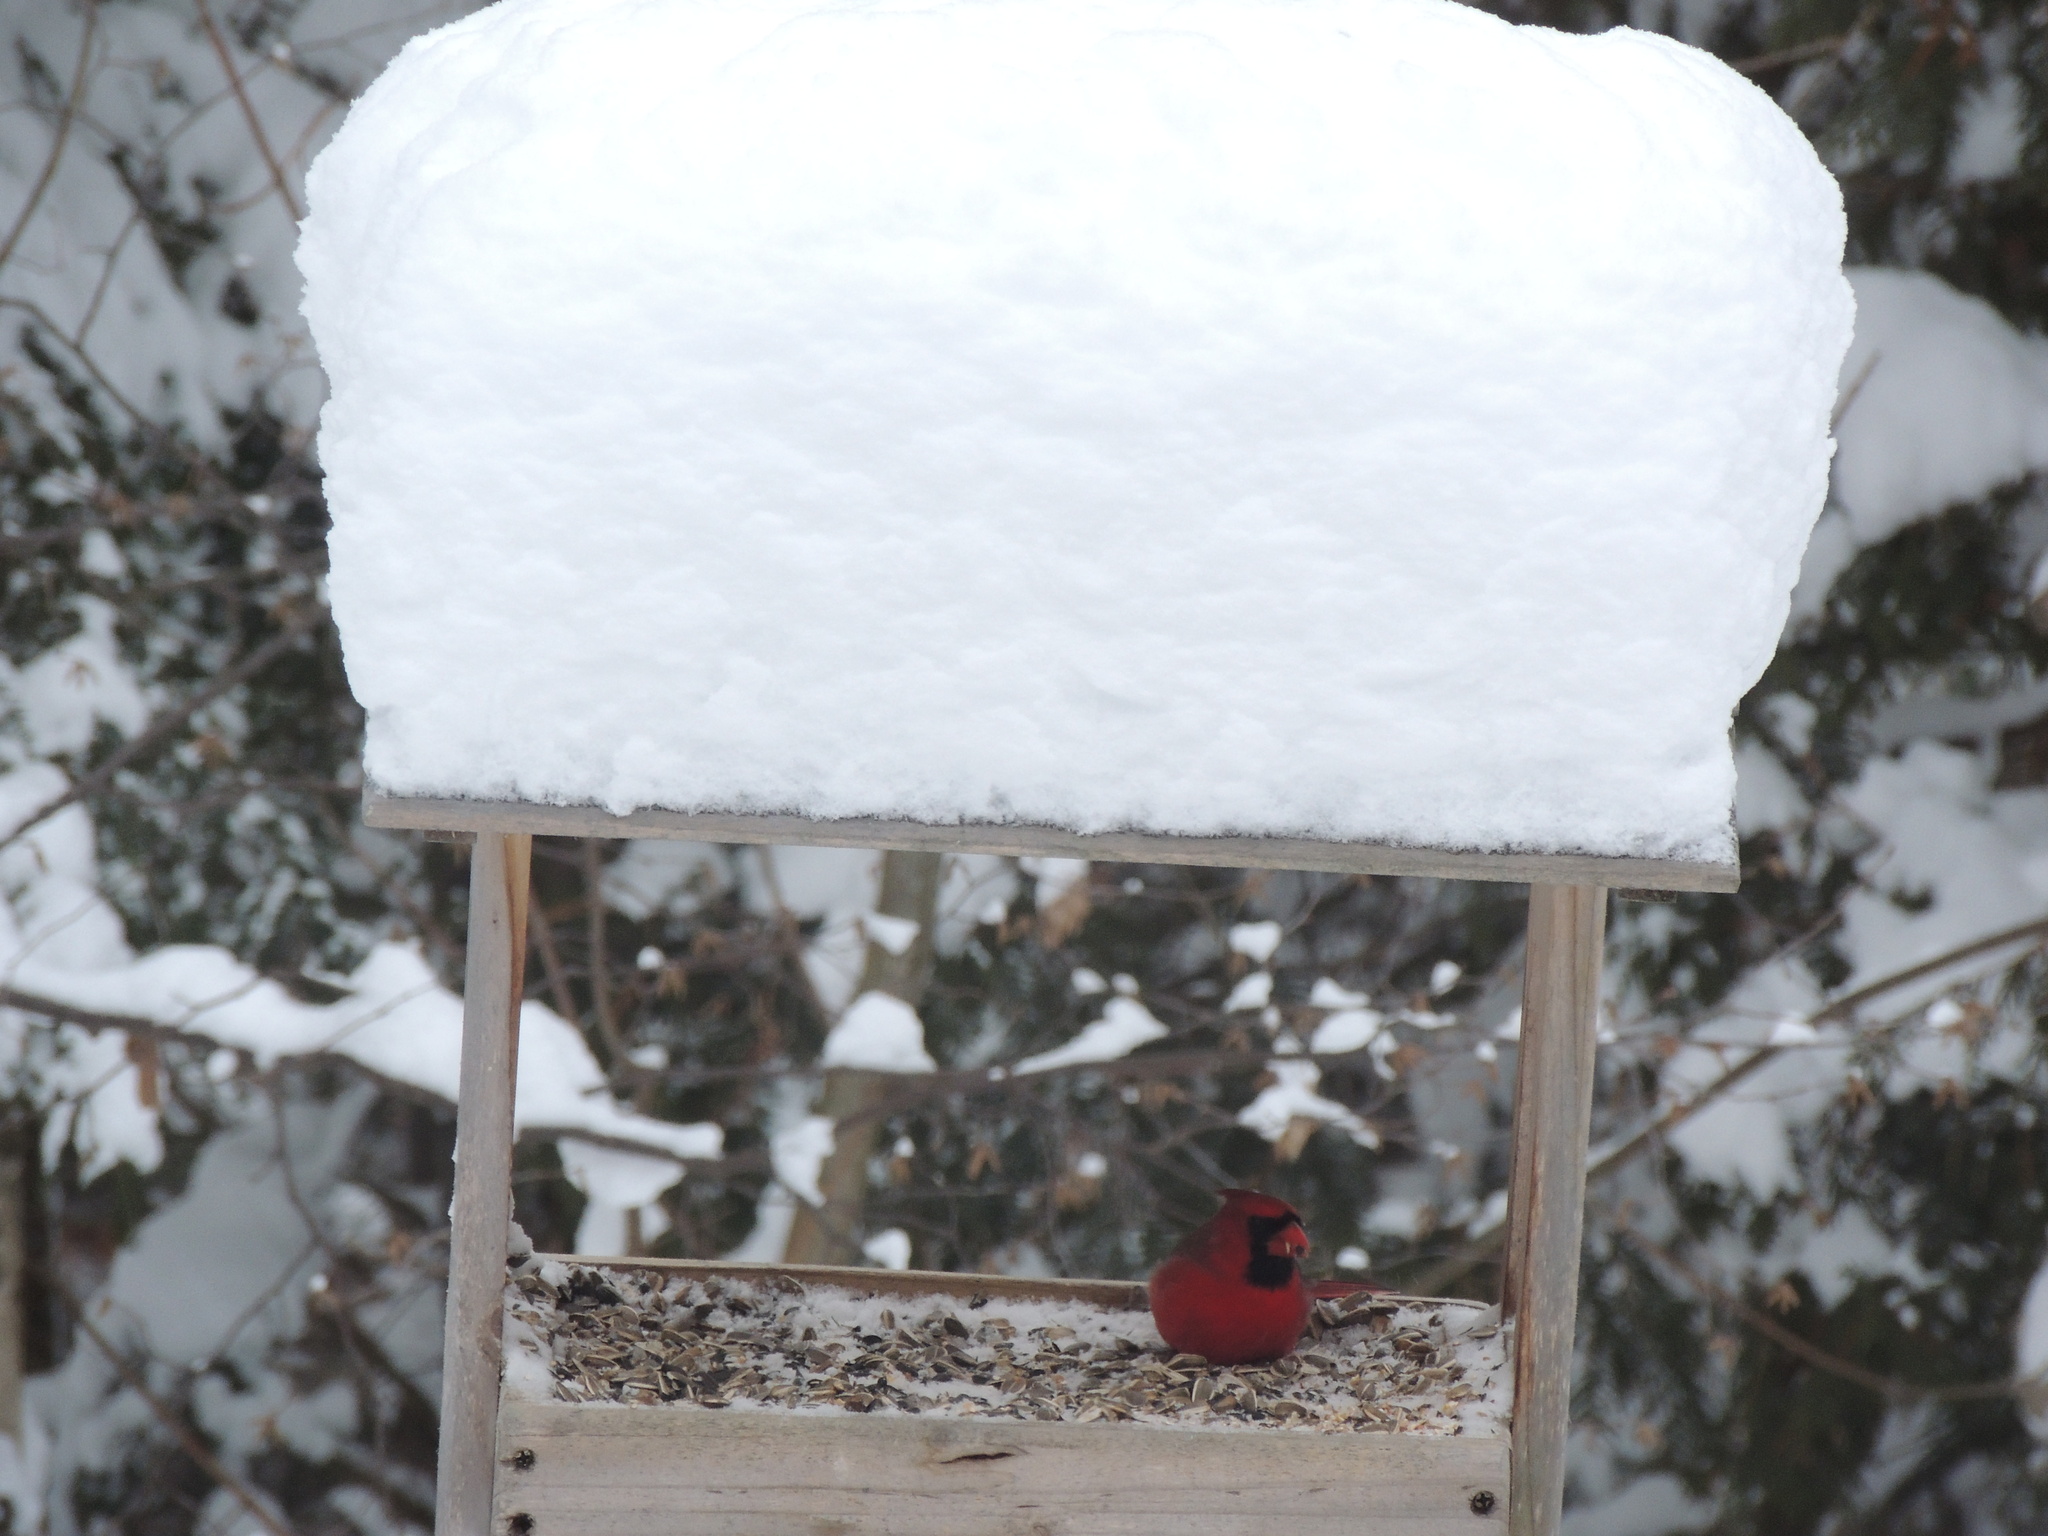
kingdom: Animalia
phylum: Chordata
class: Aves
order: Passeriformes
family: Cardinalidae
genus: Cardinalis
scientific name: Cardinalis cardinalis
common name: Northern cardinal
